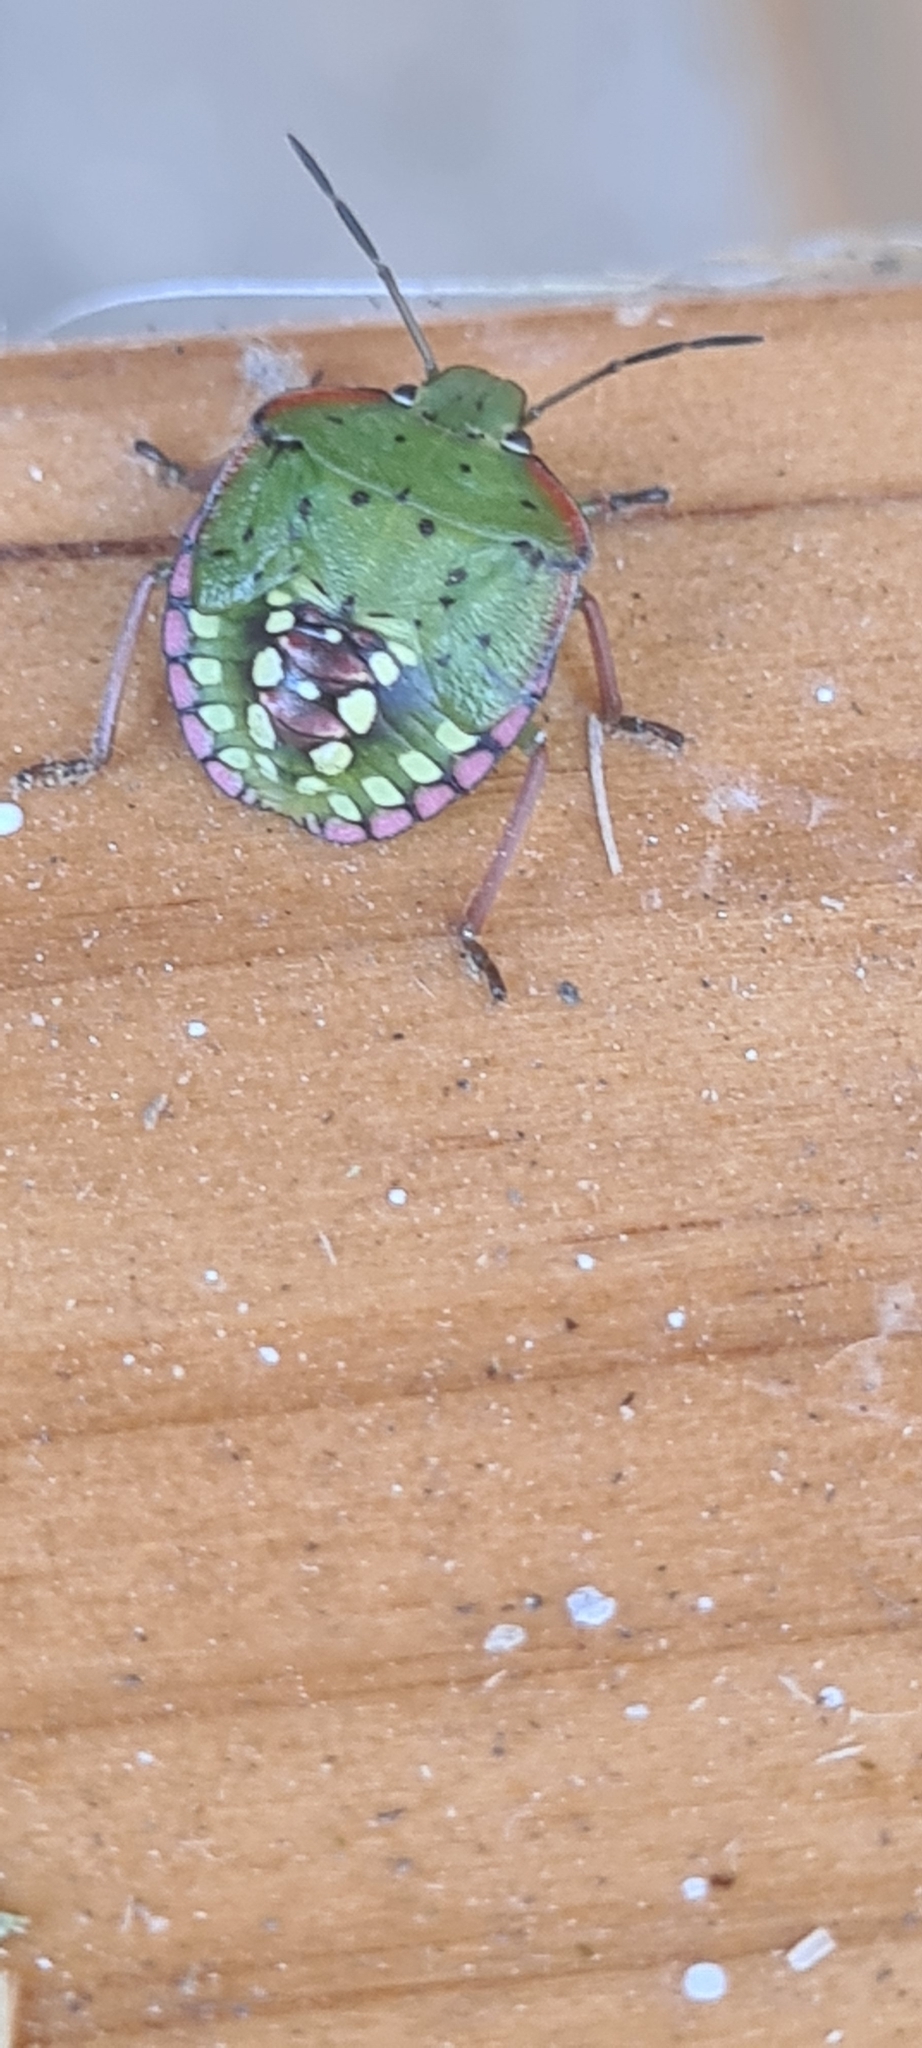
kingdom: Animalia
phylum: Arthropoda
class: Insecta
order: Hemiptera
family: Pentatomidae
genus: Nezara
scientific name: Nezara viridula
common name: Southern green stink bug
